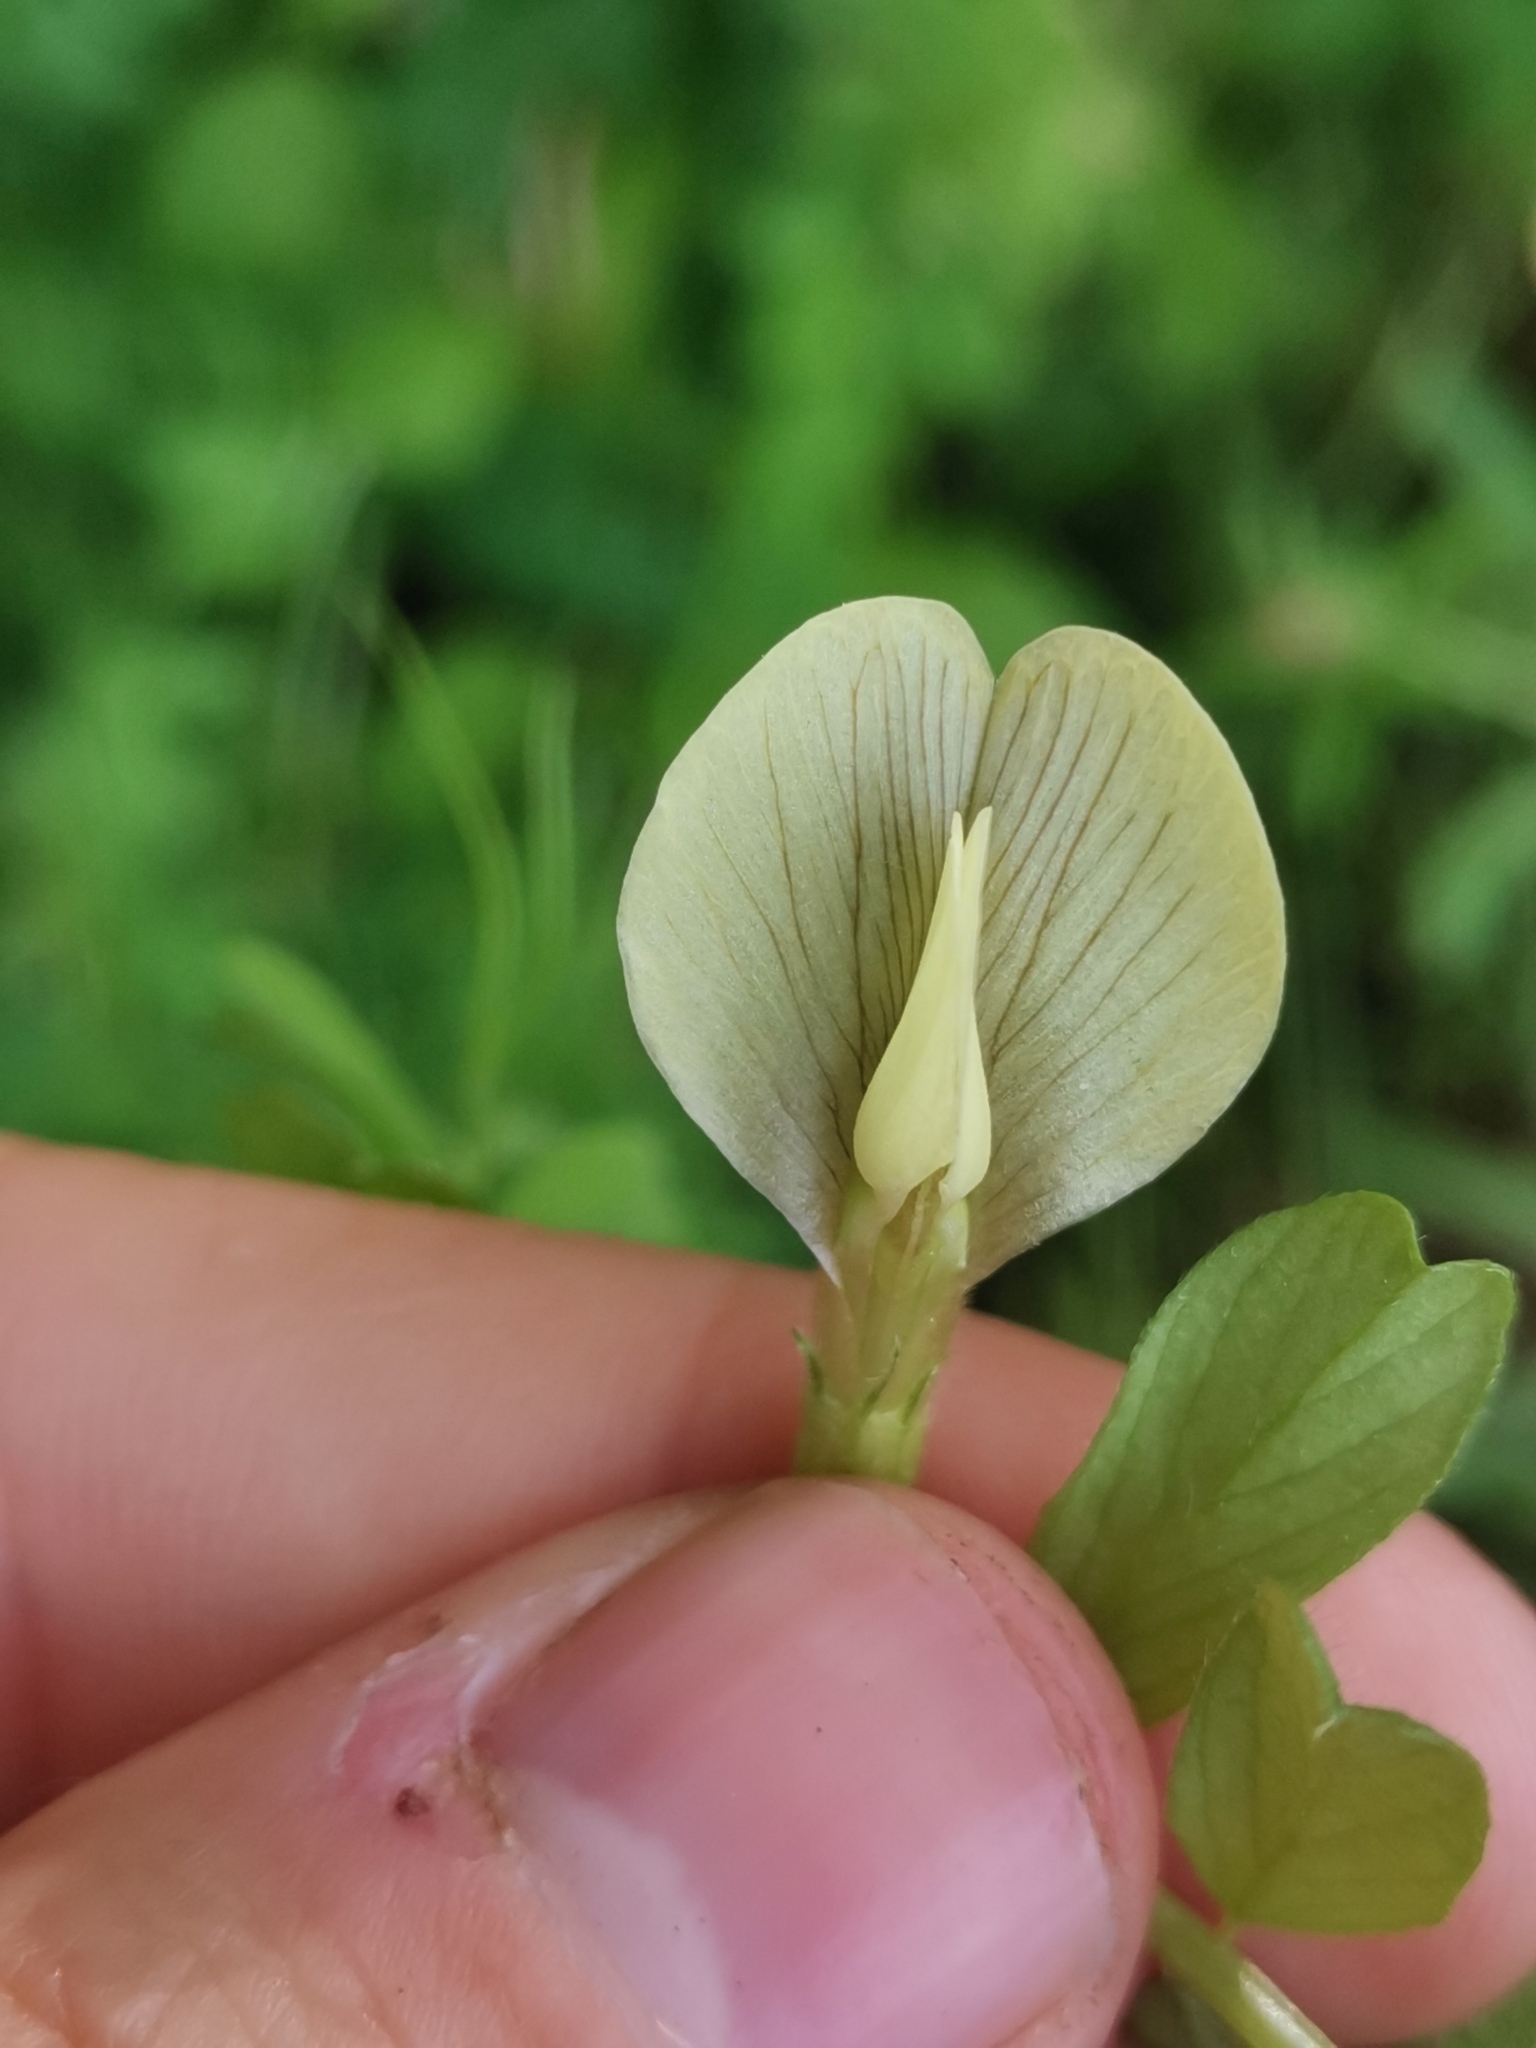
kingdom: Plantae
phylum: Tracheophyta
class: Magnoliopsida
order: Fabales
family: Fabaceae
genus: Vicia
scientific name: Vicia hybrida
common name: Hairy yellow vetch
